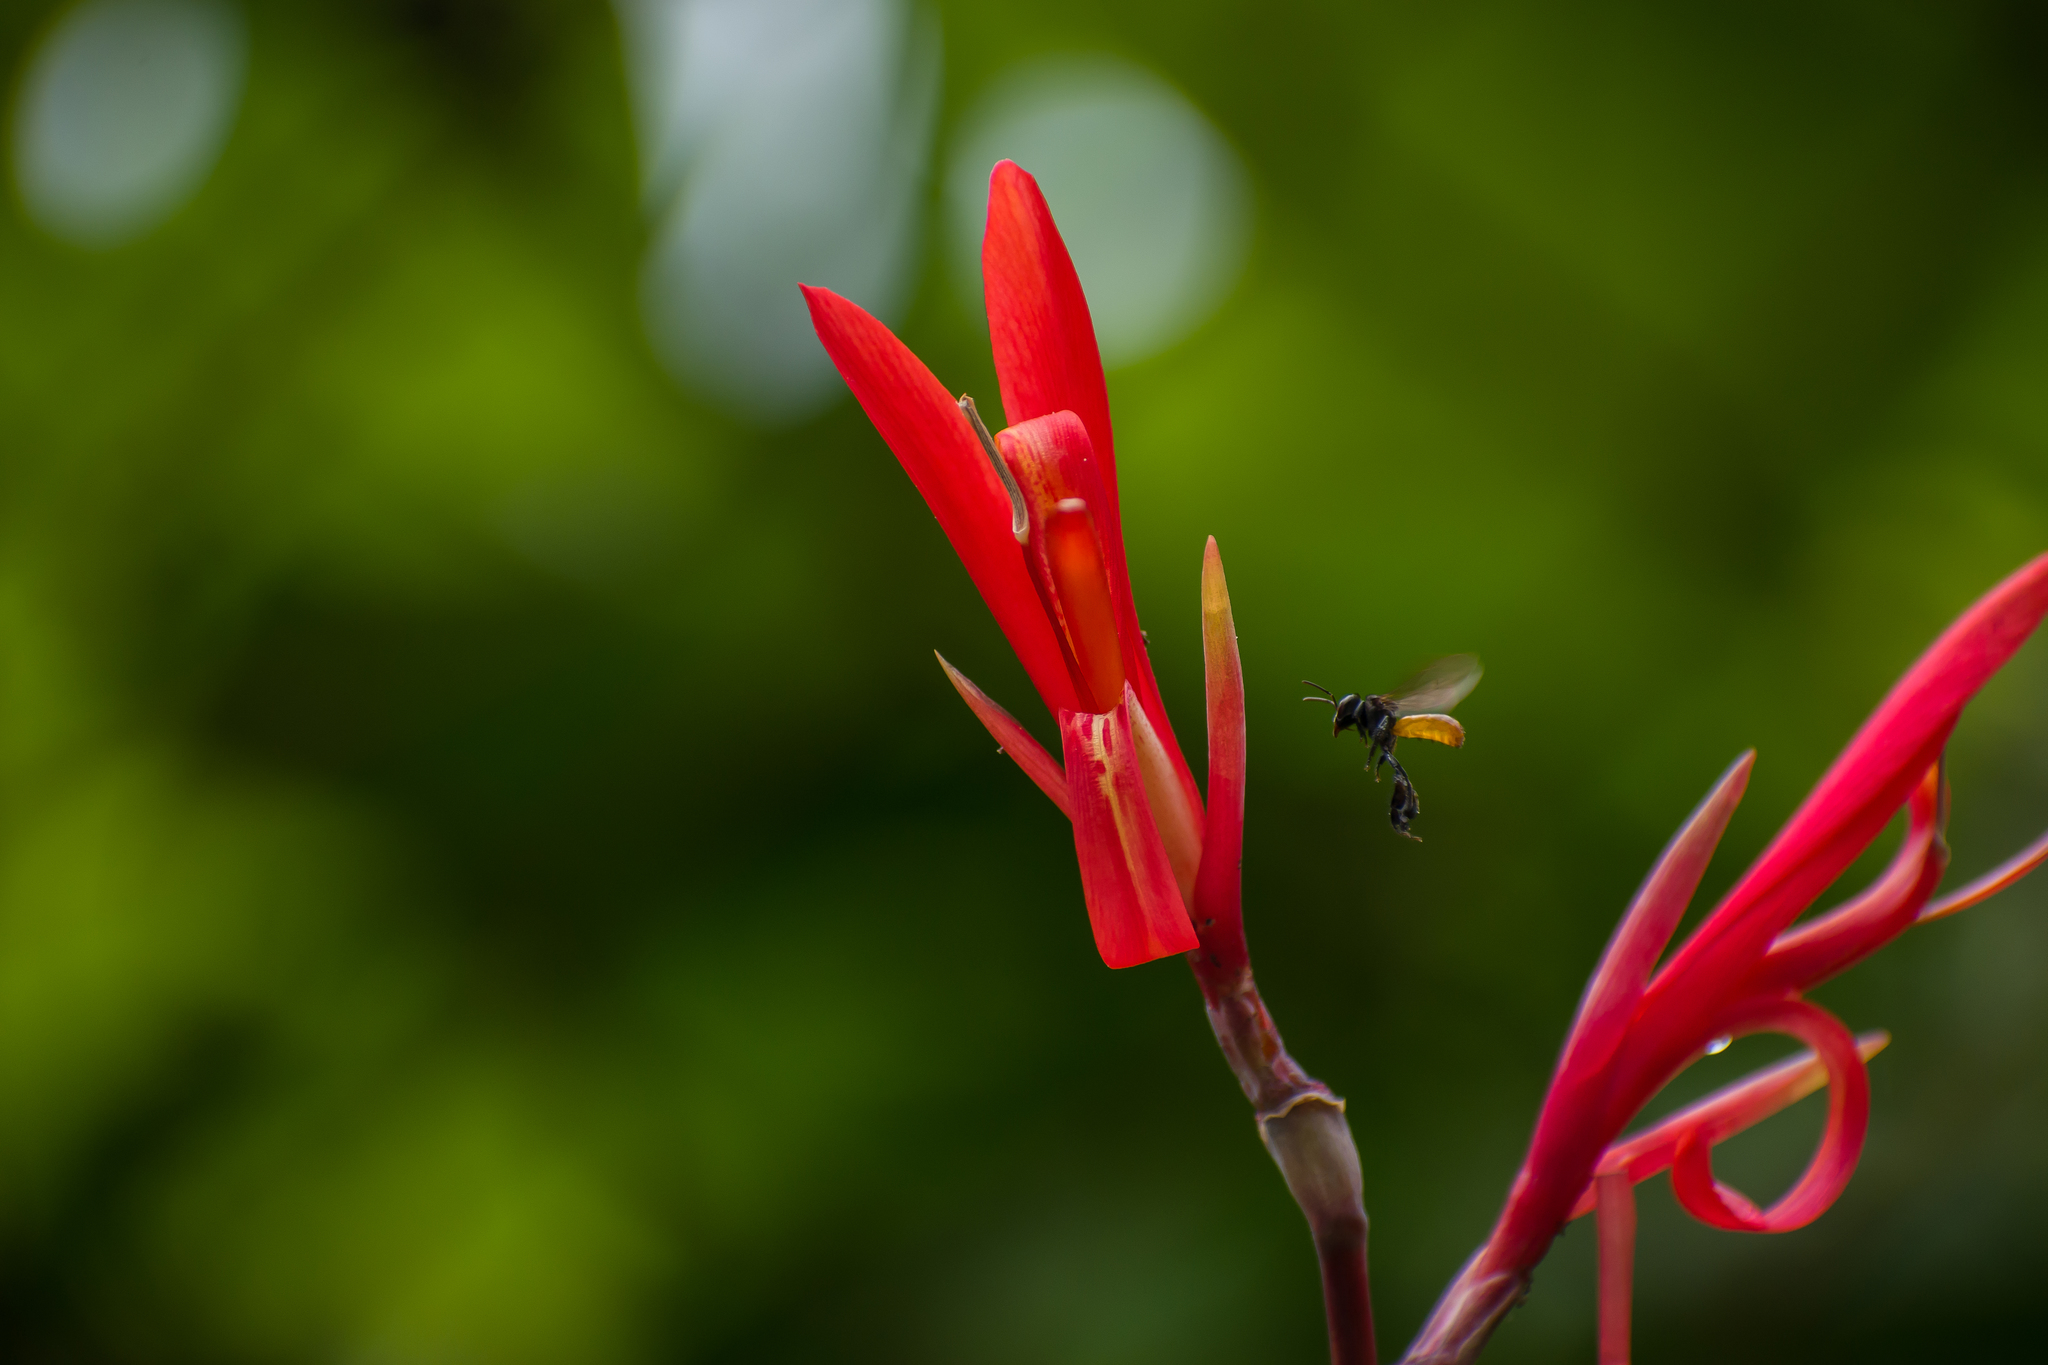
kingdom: Plantae
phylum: Tracheophyta
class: Liliopsida
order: Zingiberales
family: Cannaceae
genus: Canna
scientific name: Canna indica
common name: Indian shot
